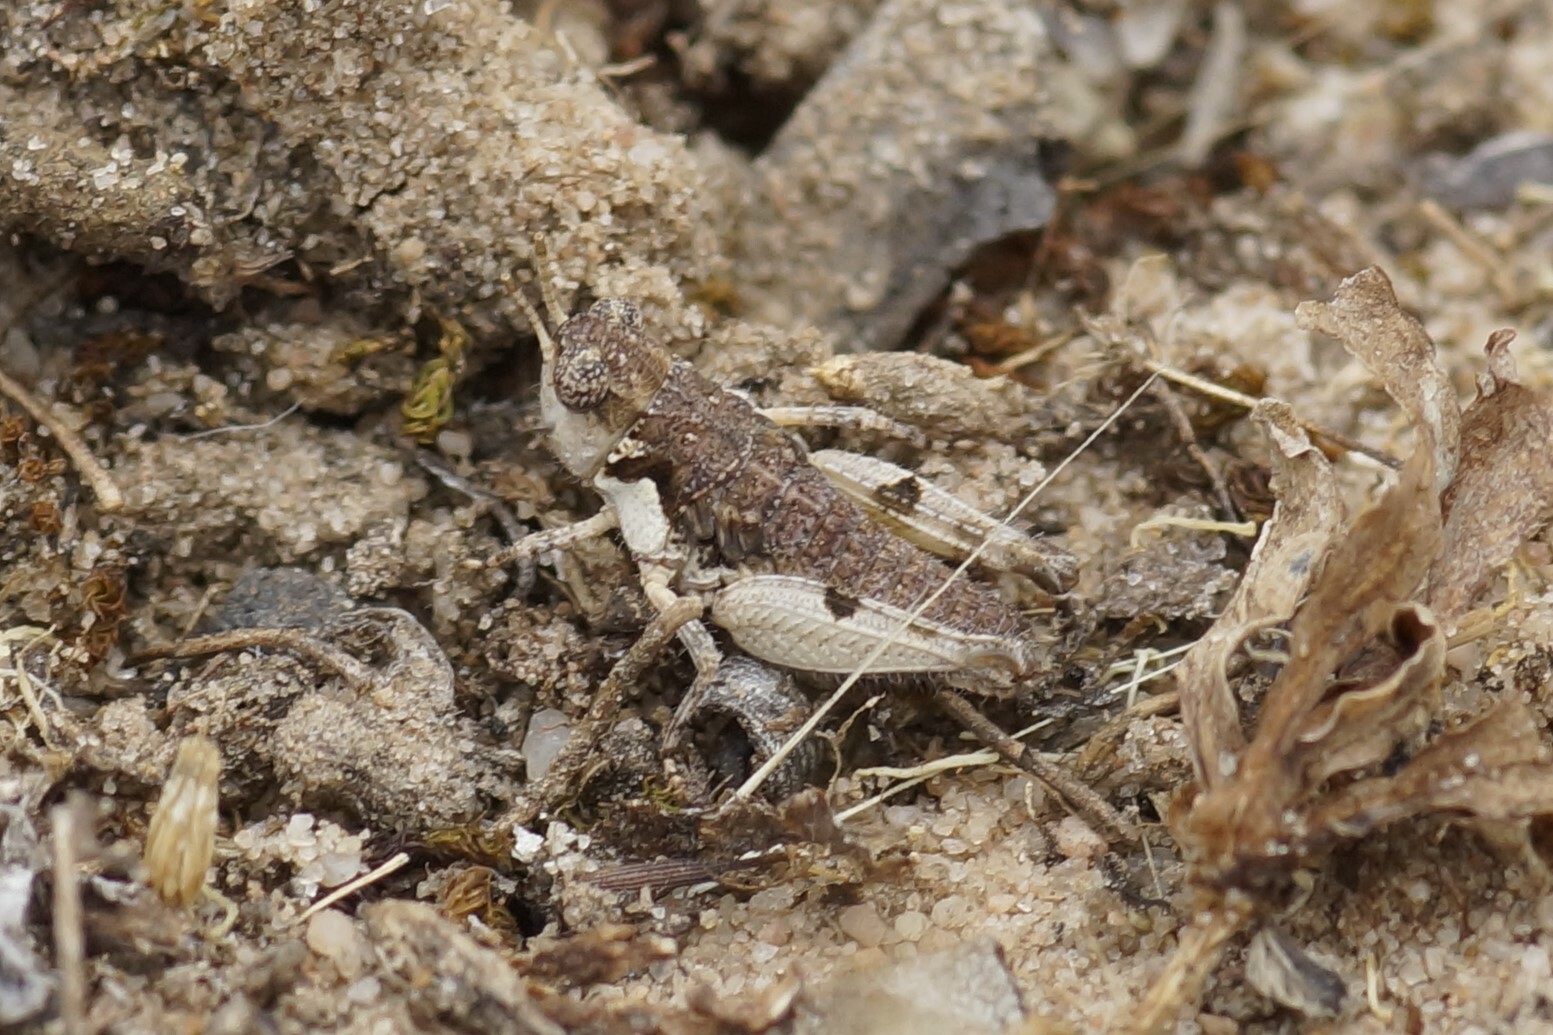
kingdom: Animalia
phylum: Arthropoda
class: Insecta
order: Orthoptera
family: Acrididae
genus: Pycnostictus
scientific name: Pycnostictus seriatus
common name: Common bandwing
